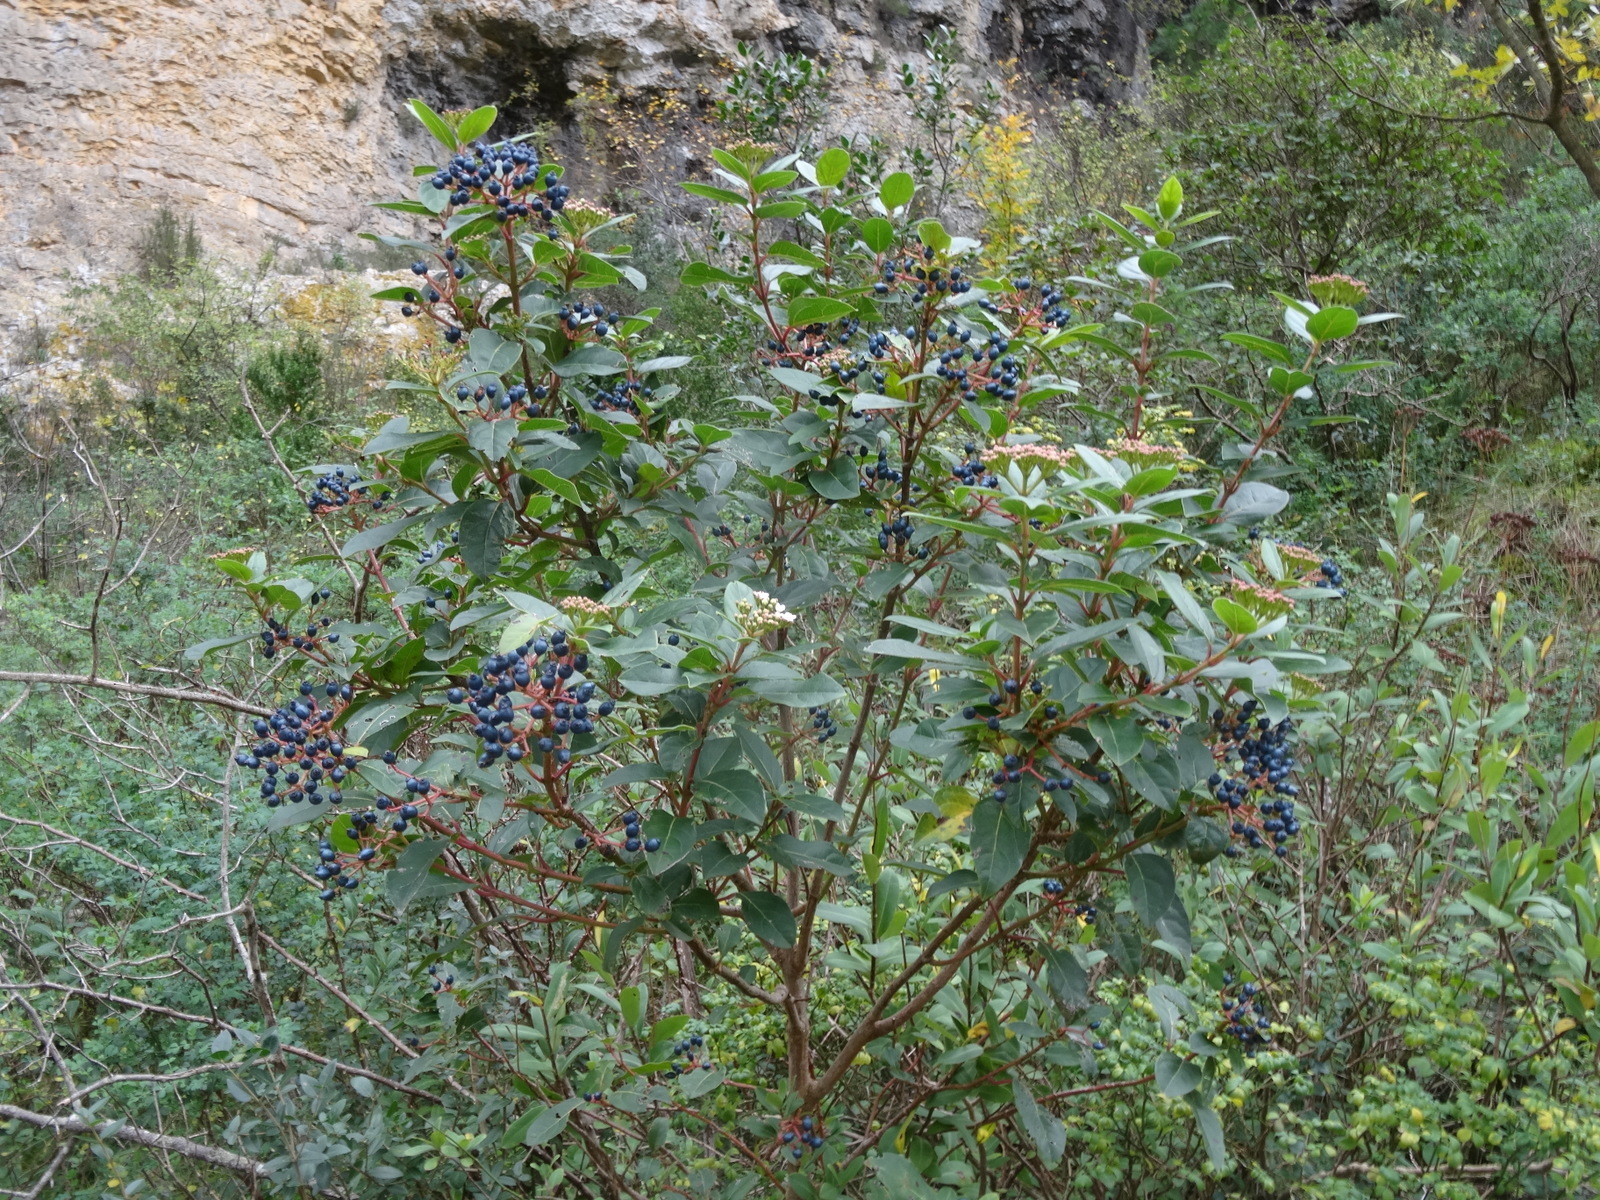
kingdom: Plantae
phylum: Tracheophyta
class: Magnoliopsida
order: Dipsacales
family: Viburnaceae
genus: Viburnum
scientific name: Viburnum tinus
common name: Laurustinus
